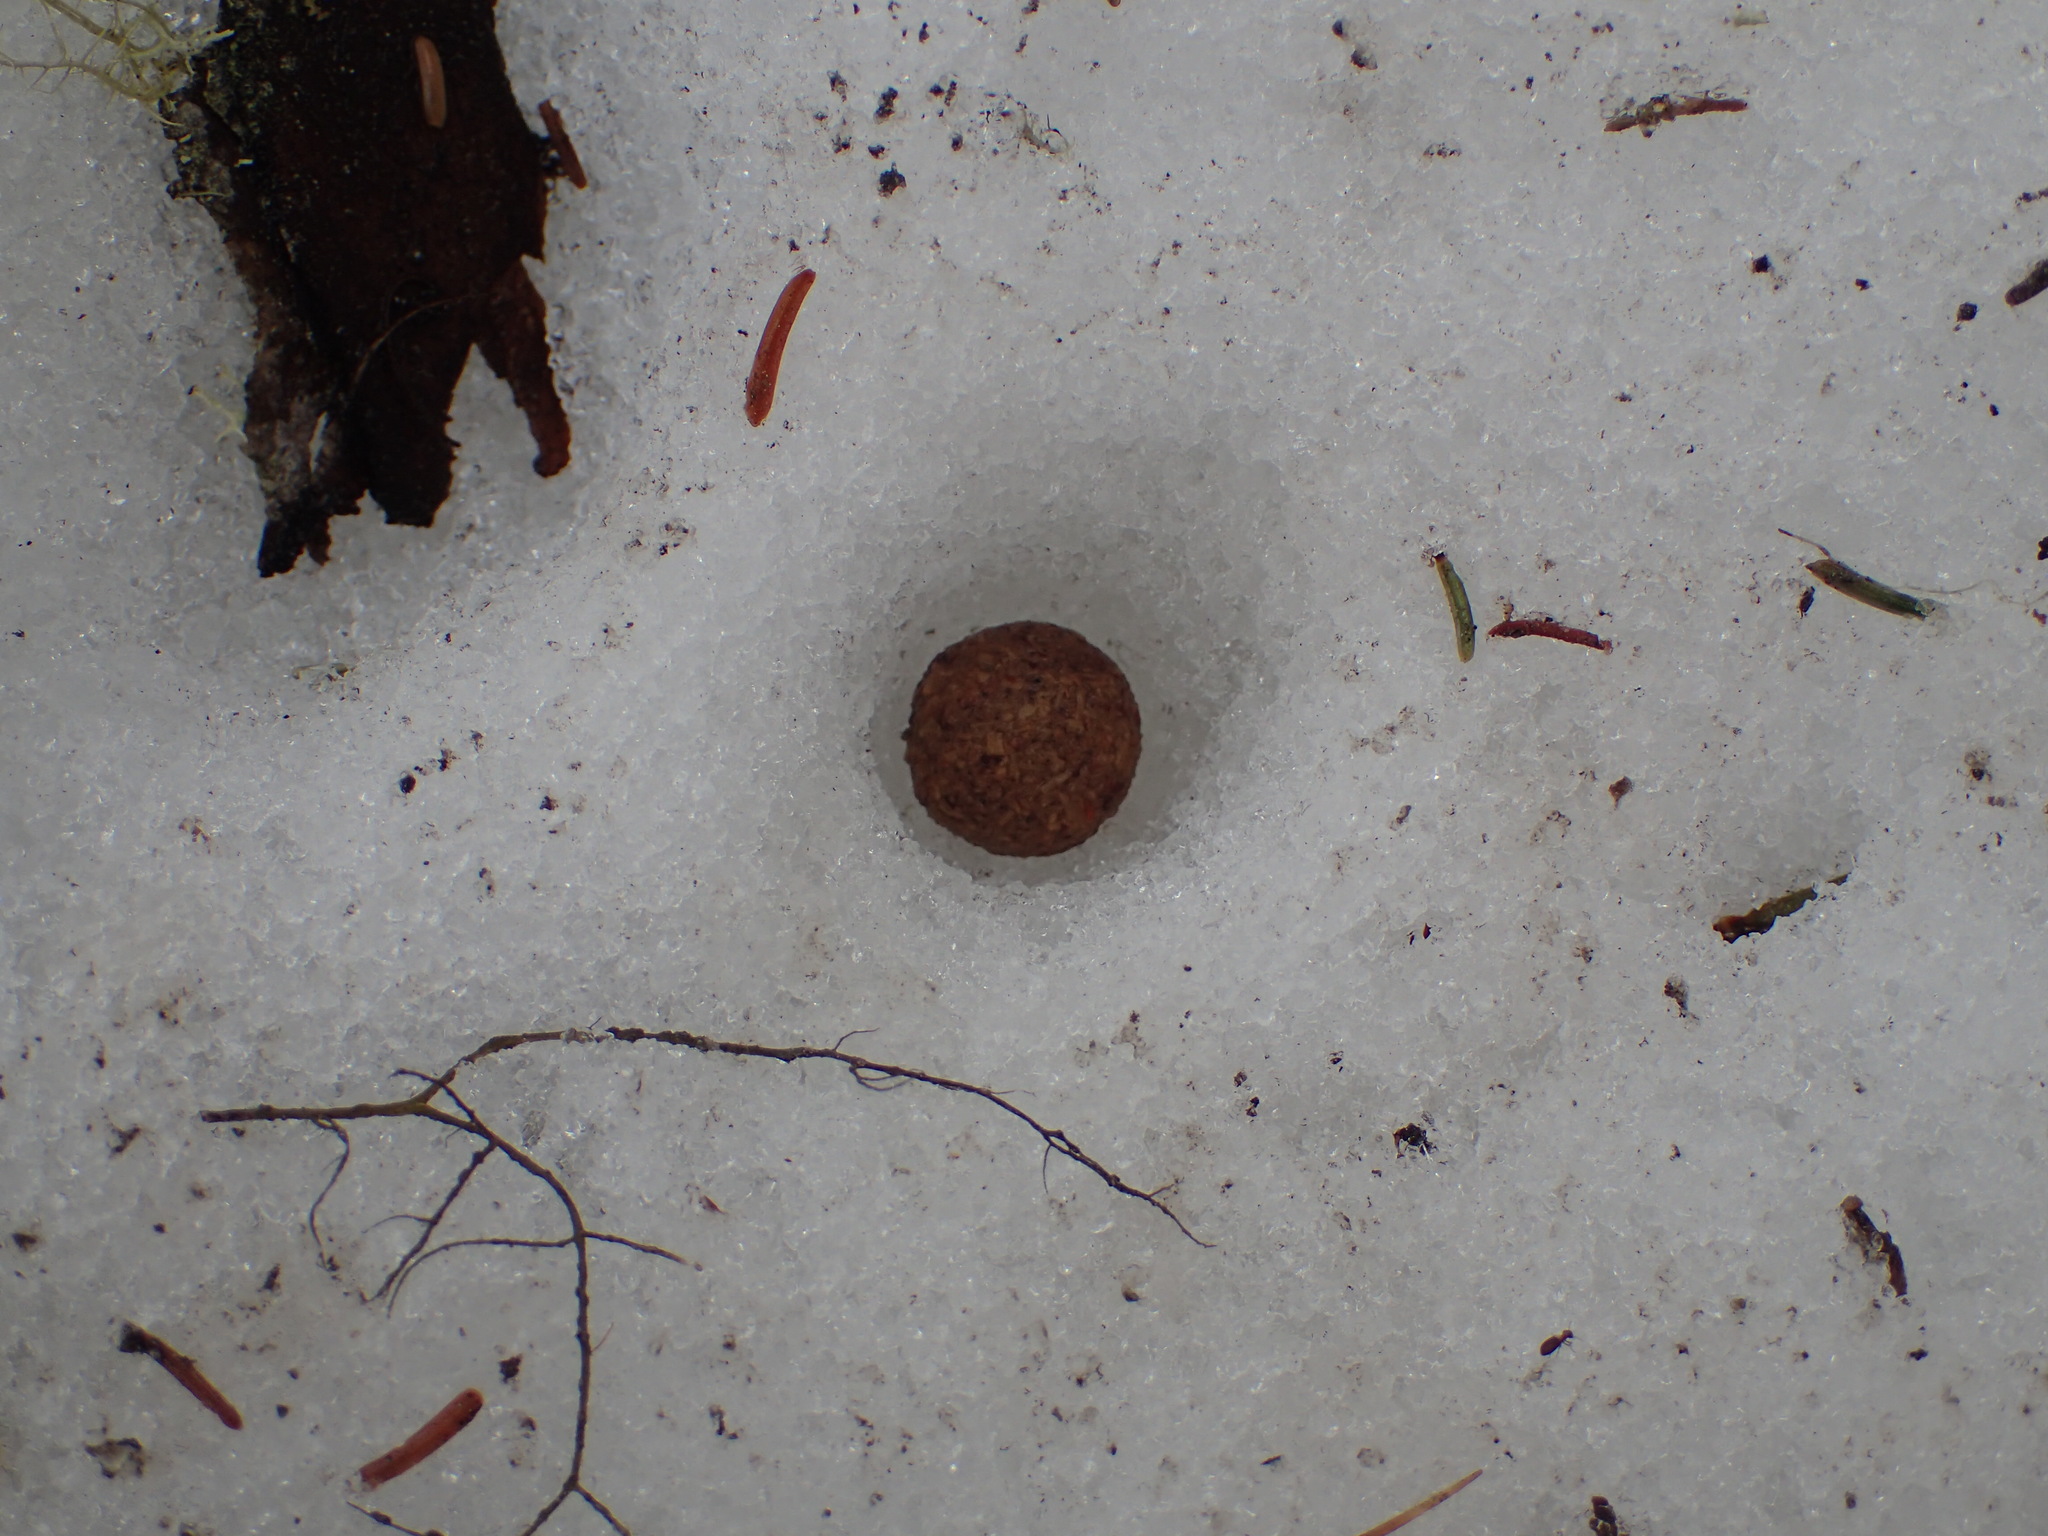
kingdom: Animalia
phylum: Chordata
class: Mammalia
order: Lagomorpha
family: Leporidae
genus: Lepus
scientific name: Lepus americanus
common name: Snowshoe hare
